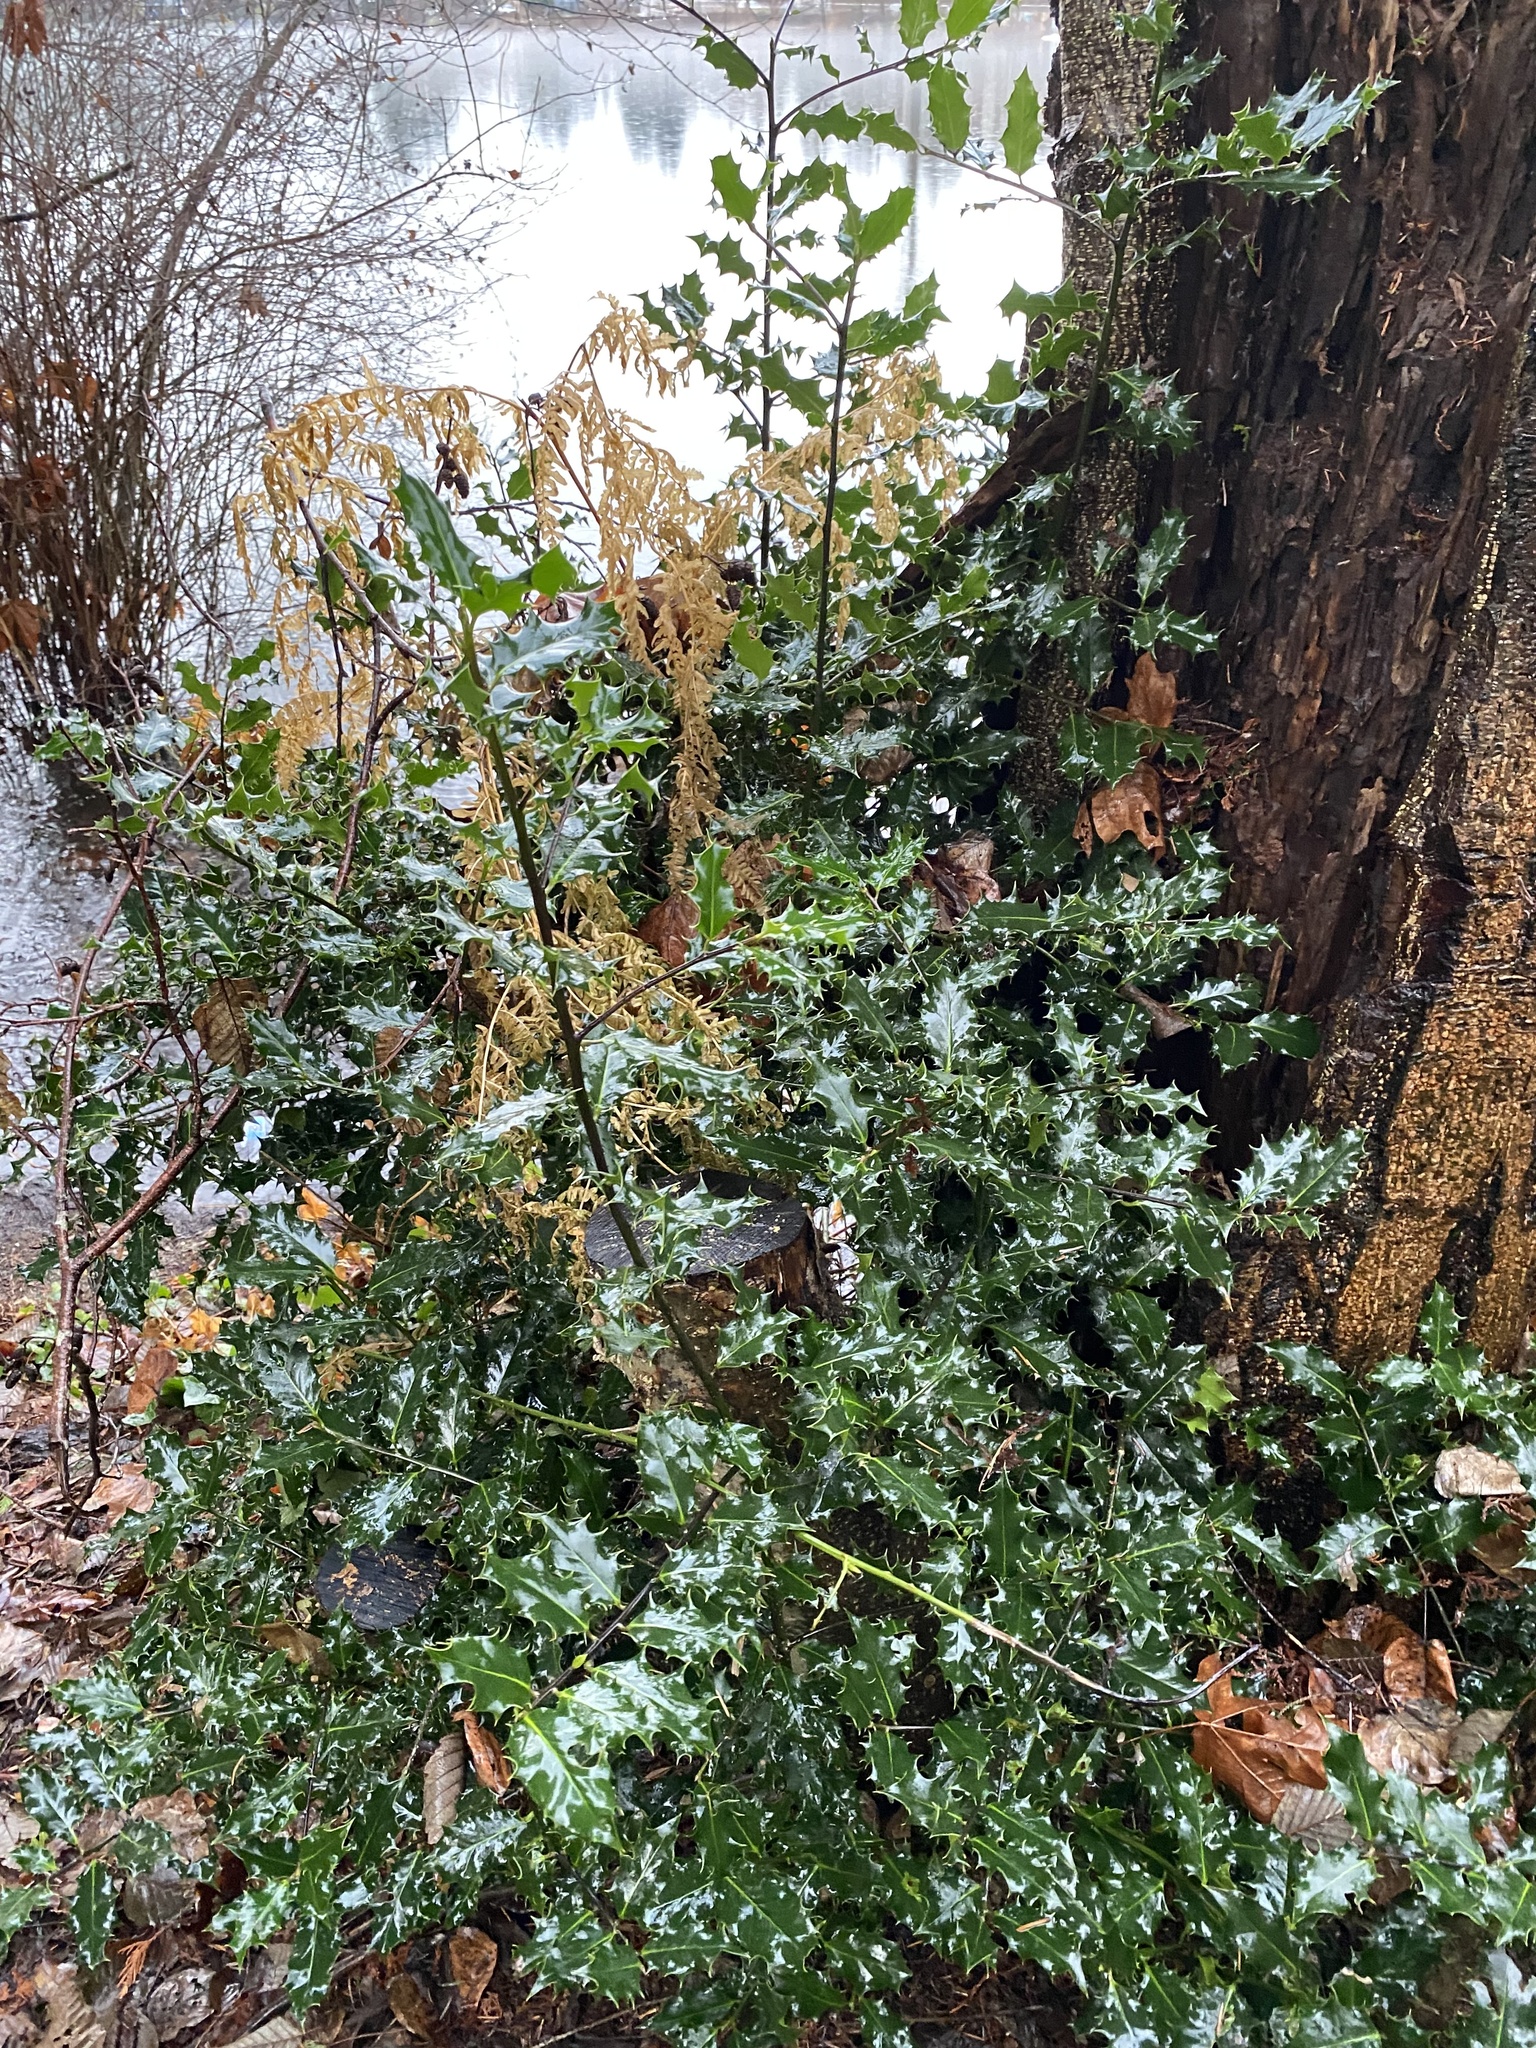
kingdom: Plantae
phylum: Tracheophyta
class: Magnoliopsida
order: Aquifoliales
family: Aquifoliaceae
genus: Ilex
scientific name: Ilex aquifolium
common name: English holly
